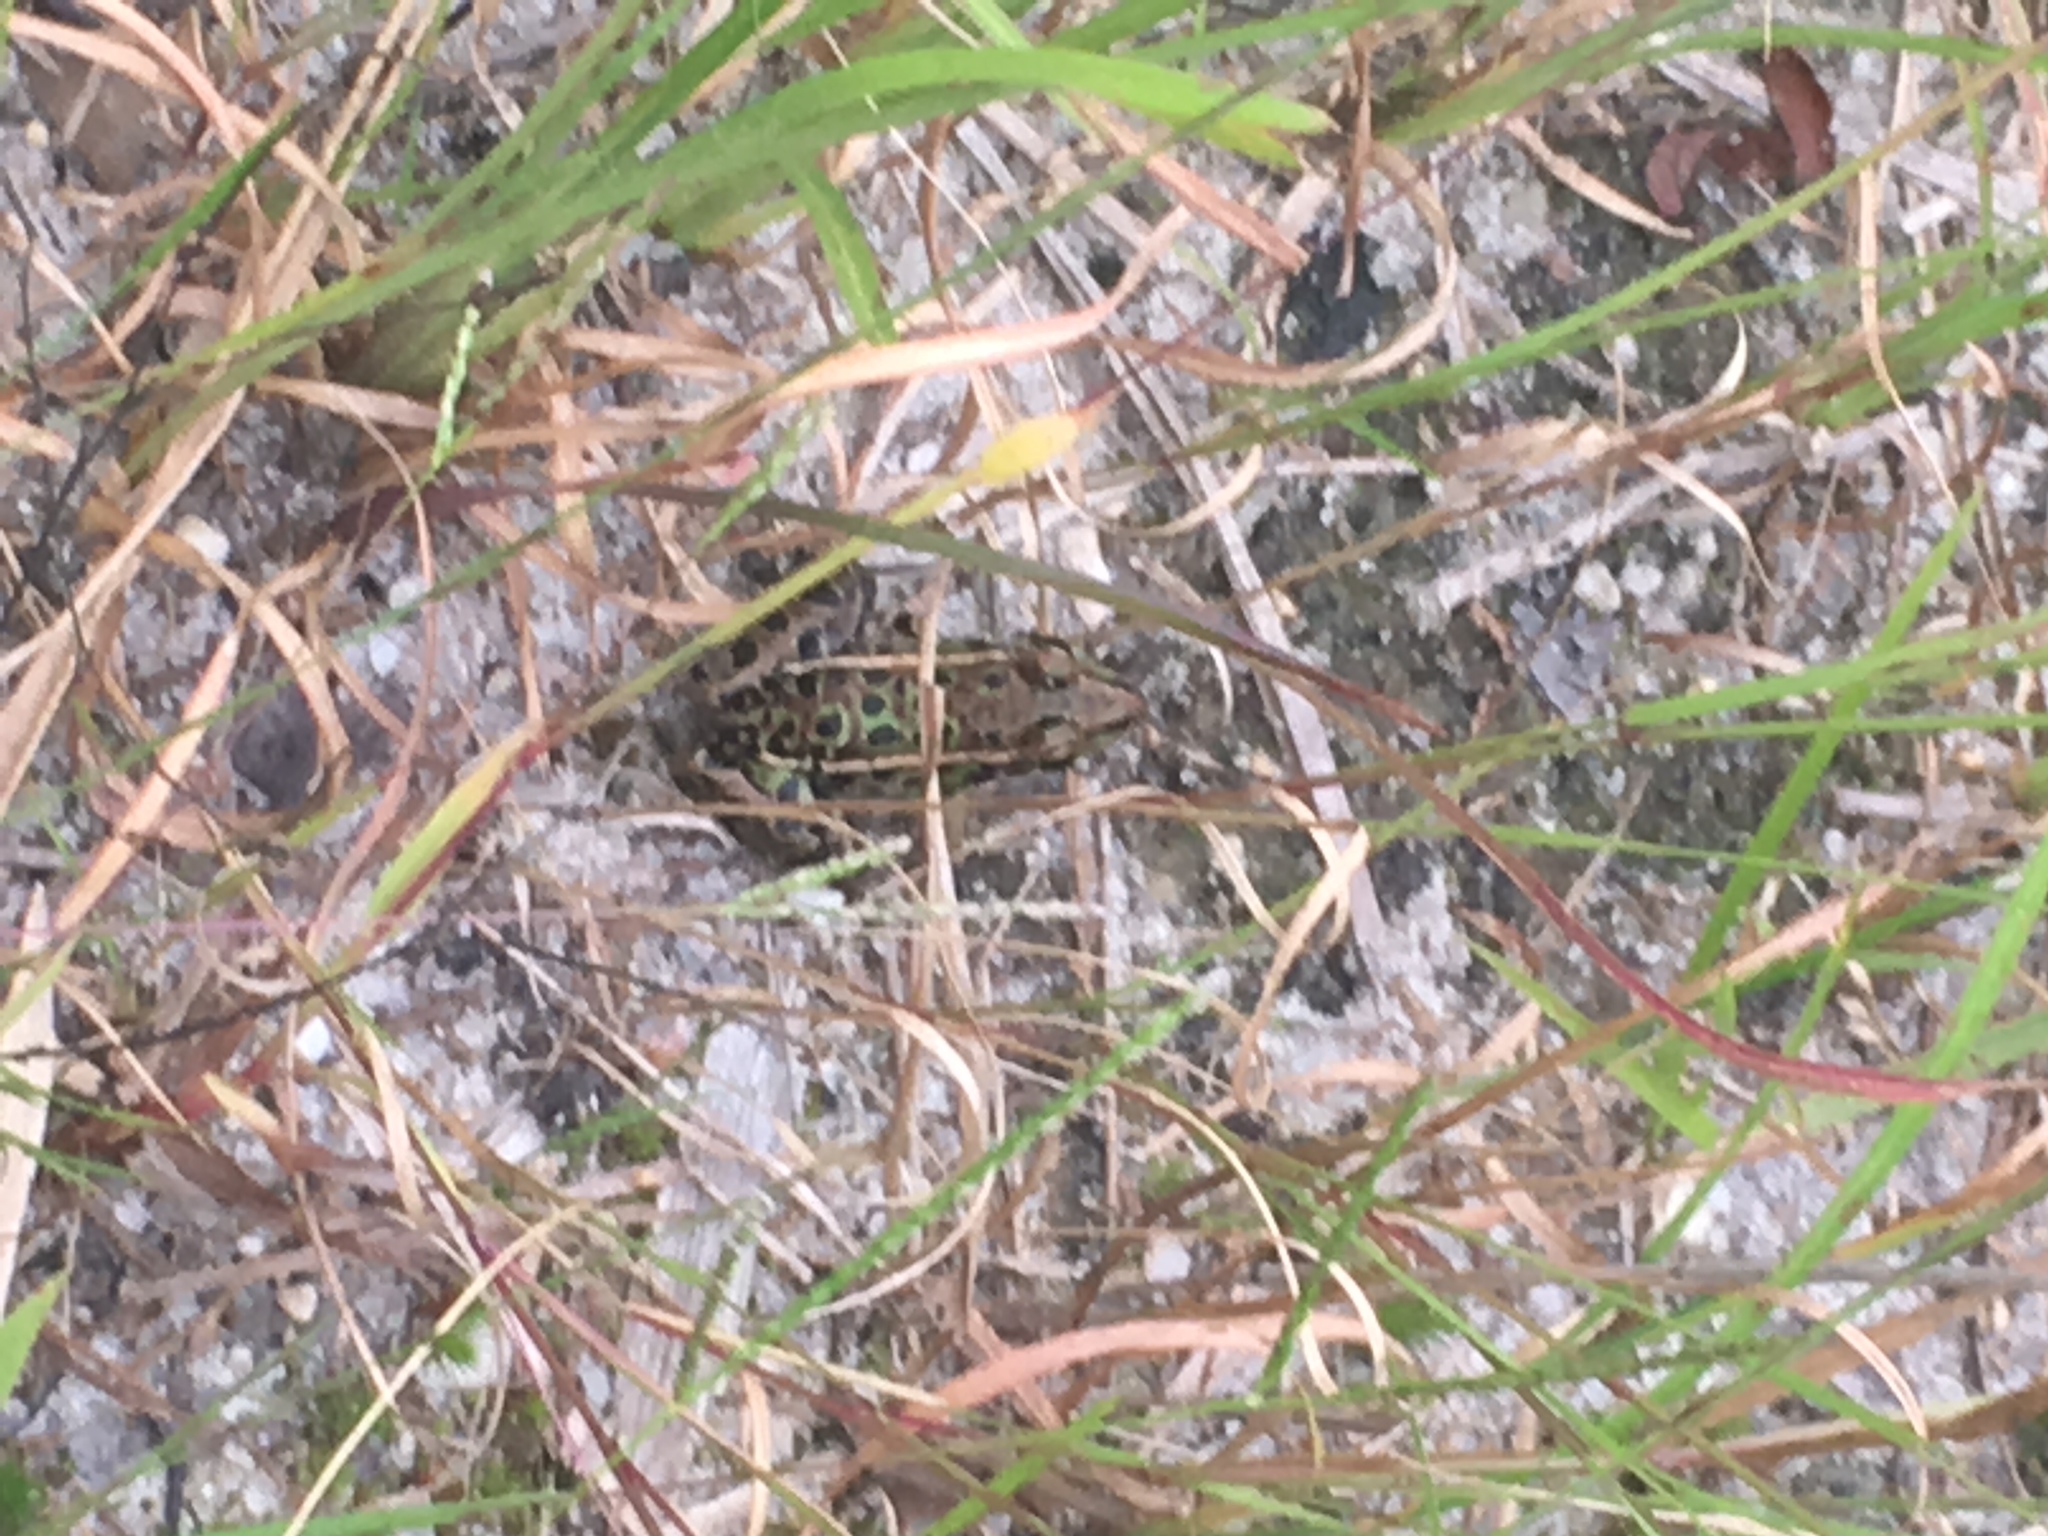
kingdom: Animalia
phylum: Chordata
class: Amphibia
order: Anura
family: Ranidae
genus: Lithobates
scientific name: Lithobates sphenocephalus
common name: Southern leopard frog
